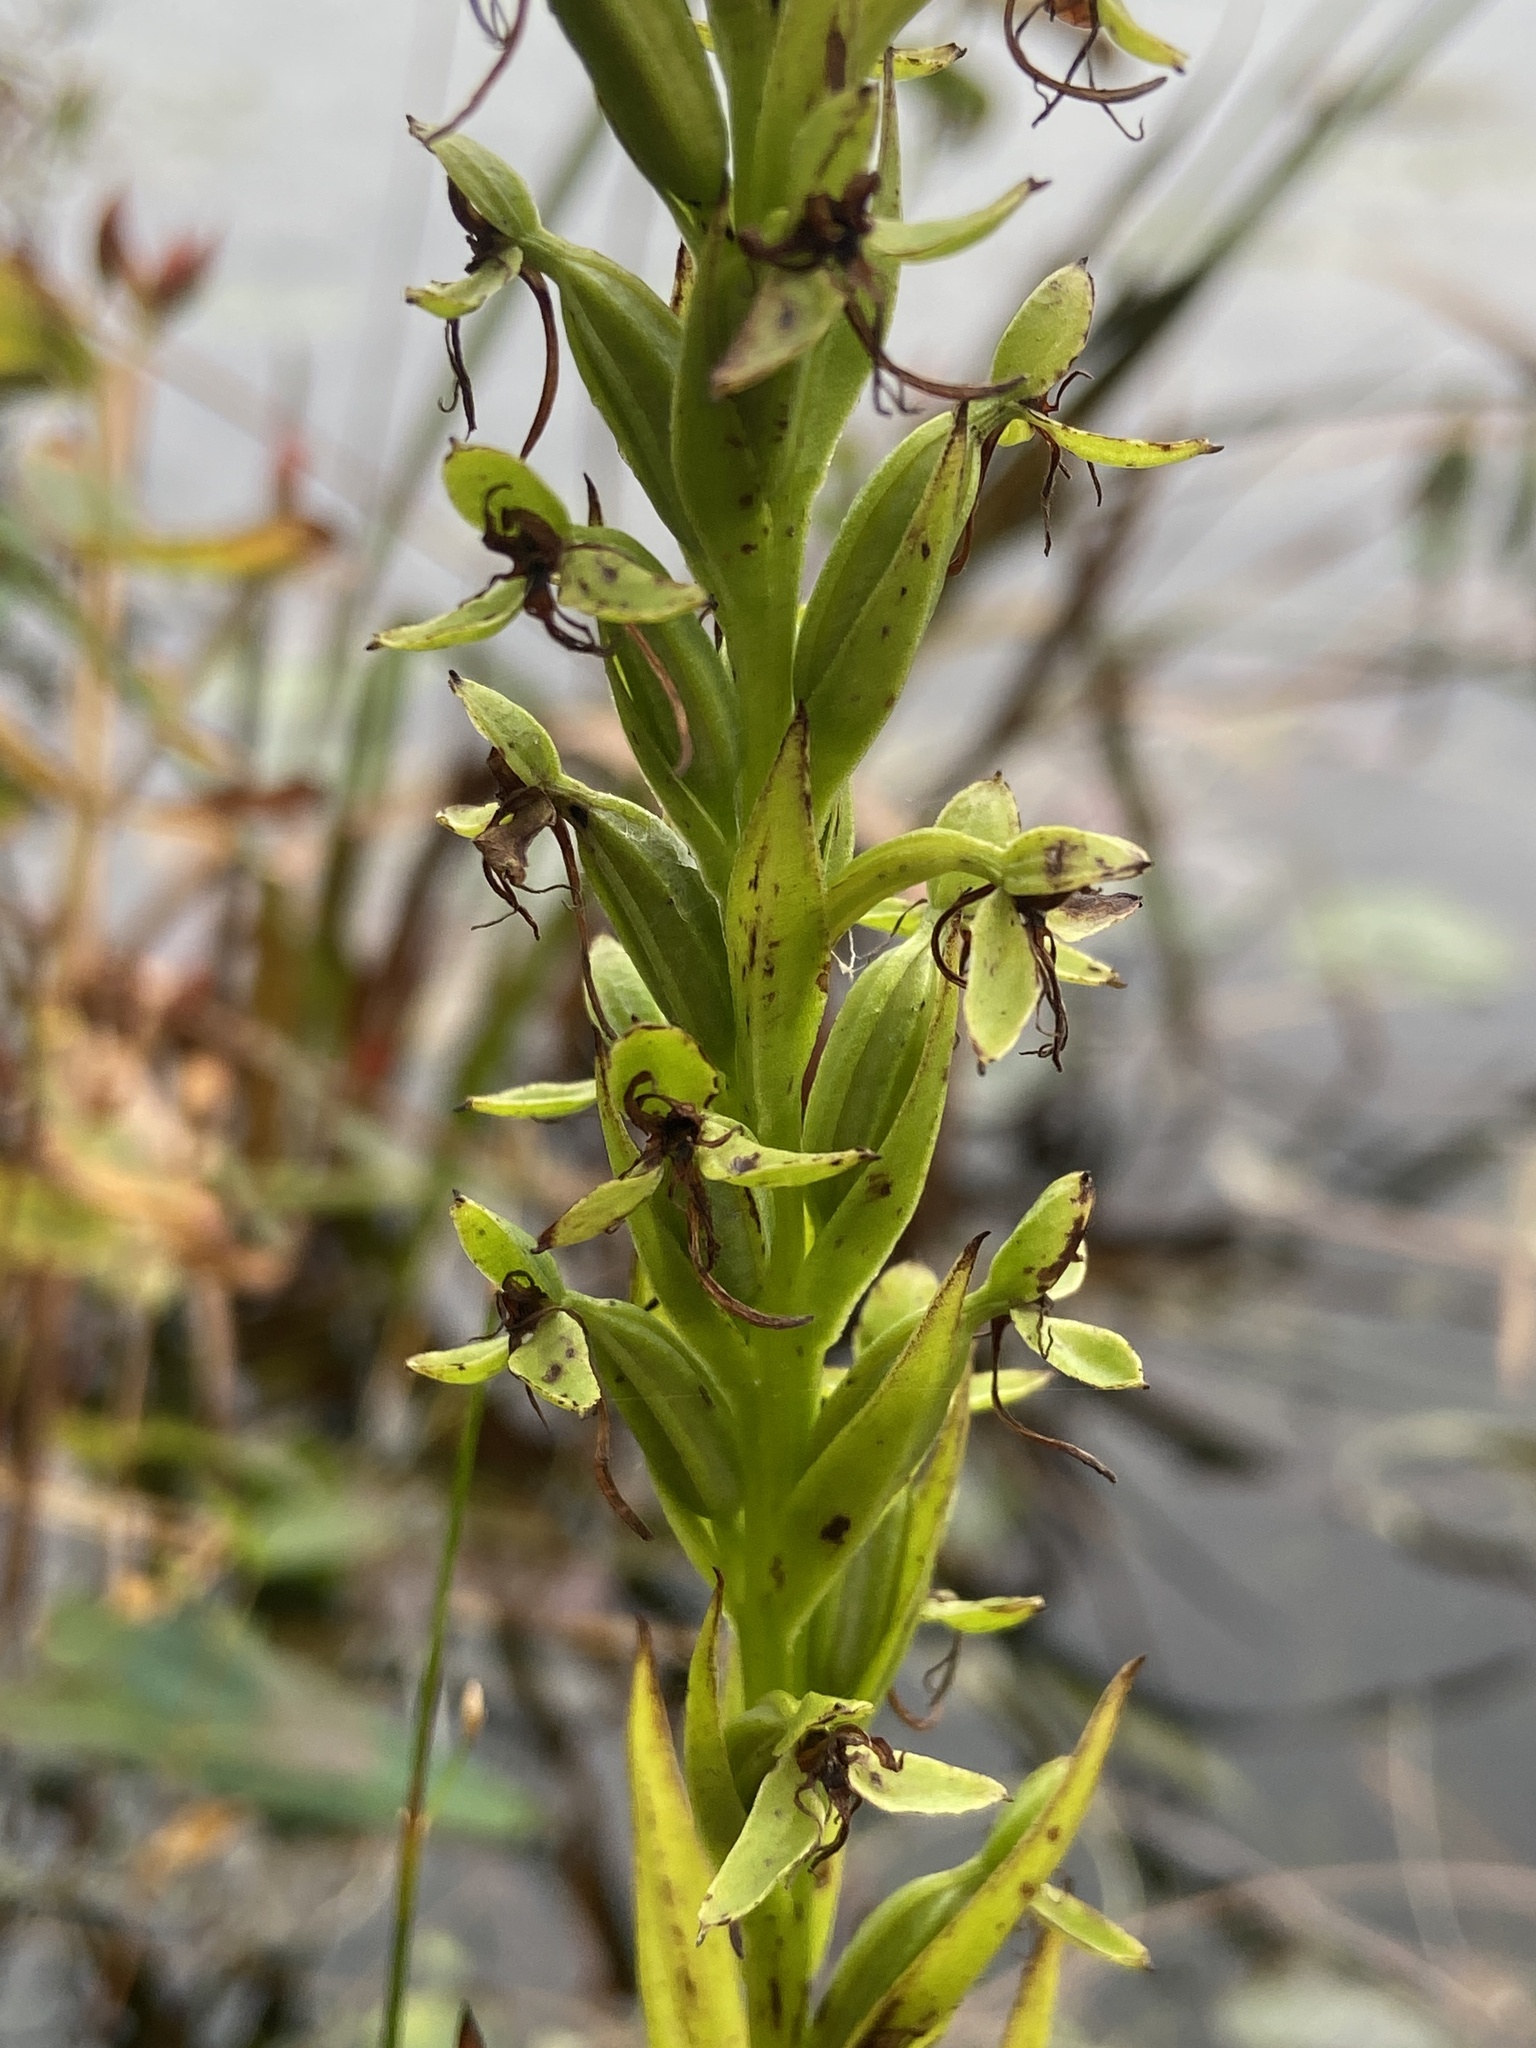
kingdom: Plantae
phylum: Tracheophyta
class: Liliopsida
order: Asparagales
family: Orchidaceae
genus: Habenaria
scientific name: Habenaria repens
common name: Water orchid
